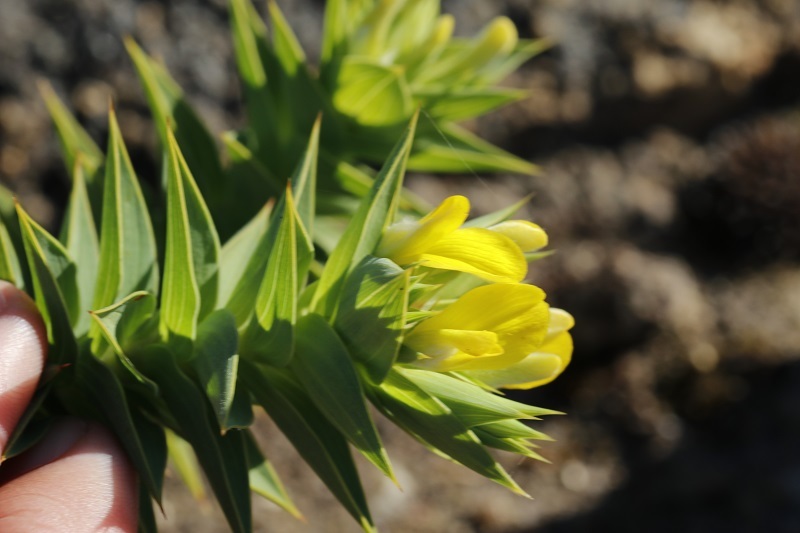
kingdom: Plantae
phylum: Tracheophyta
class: Magnoliopsida
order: Fabales
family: Fabaceae
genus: Aspalathus
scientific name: Aspalathus cordata
